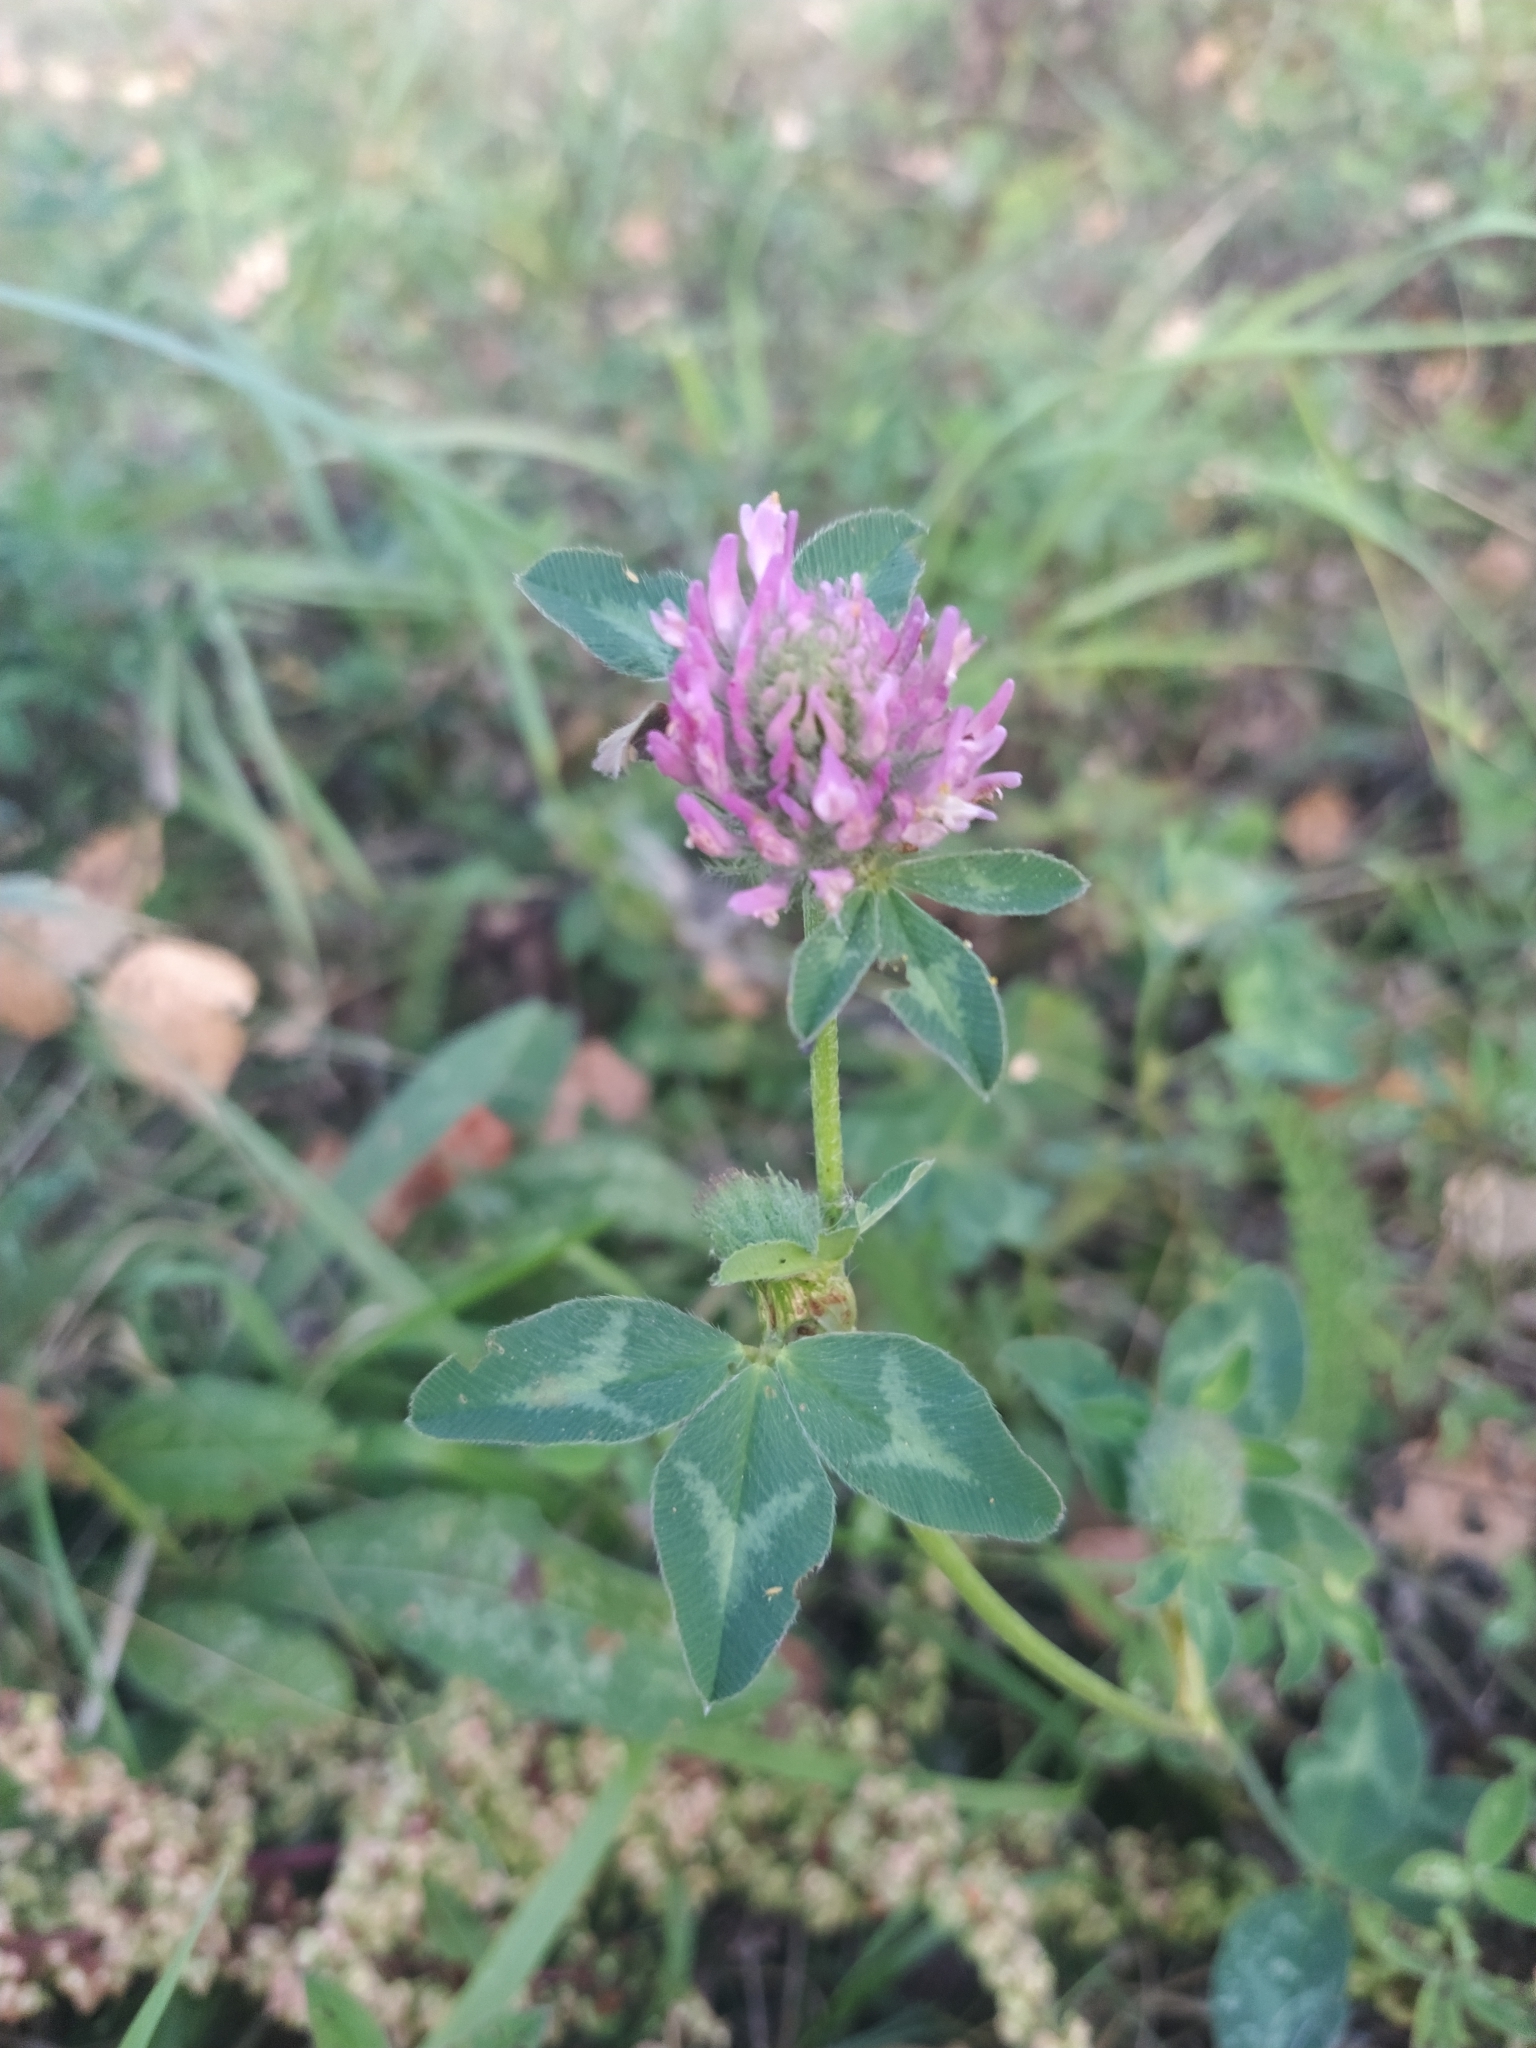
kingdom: Plantae
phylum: Tracheophyta
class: Magnoliopsida
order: Fabales
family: Fabaceae
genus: Trifolium
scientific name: Trifolium pratense
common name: Red clover
